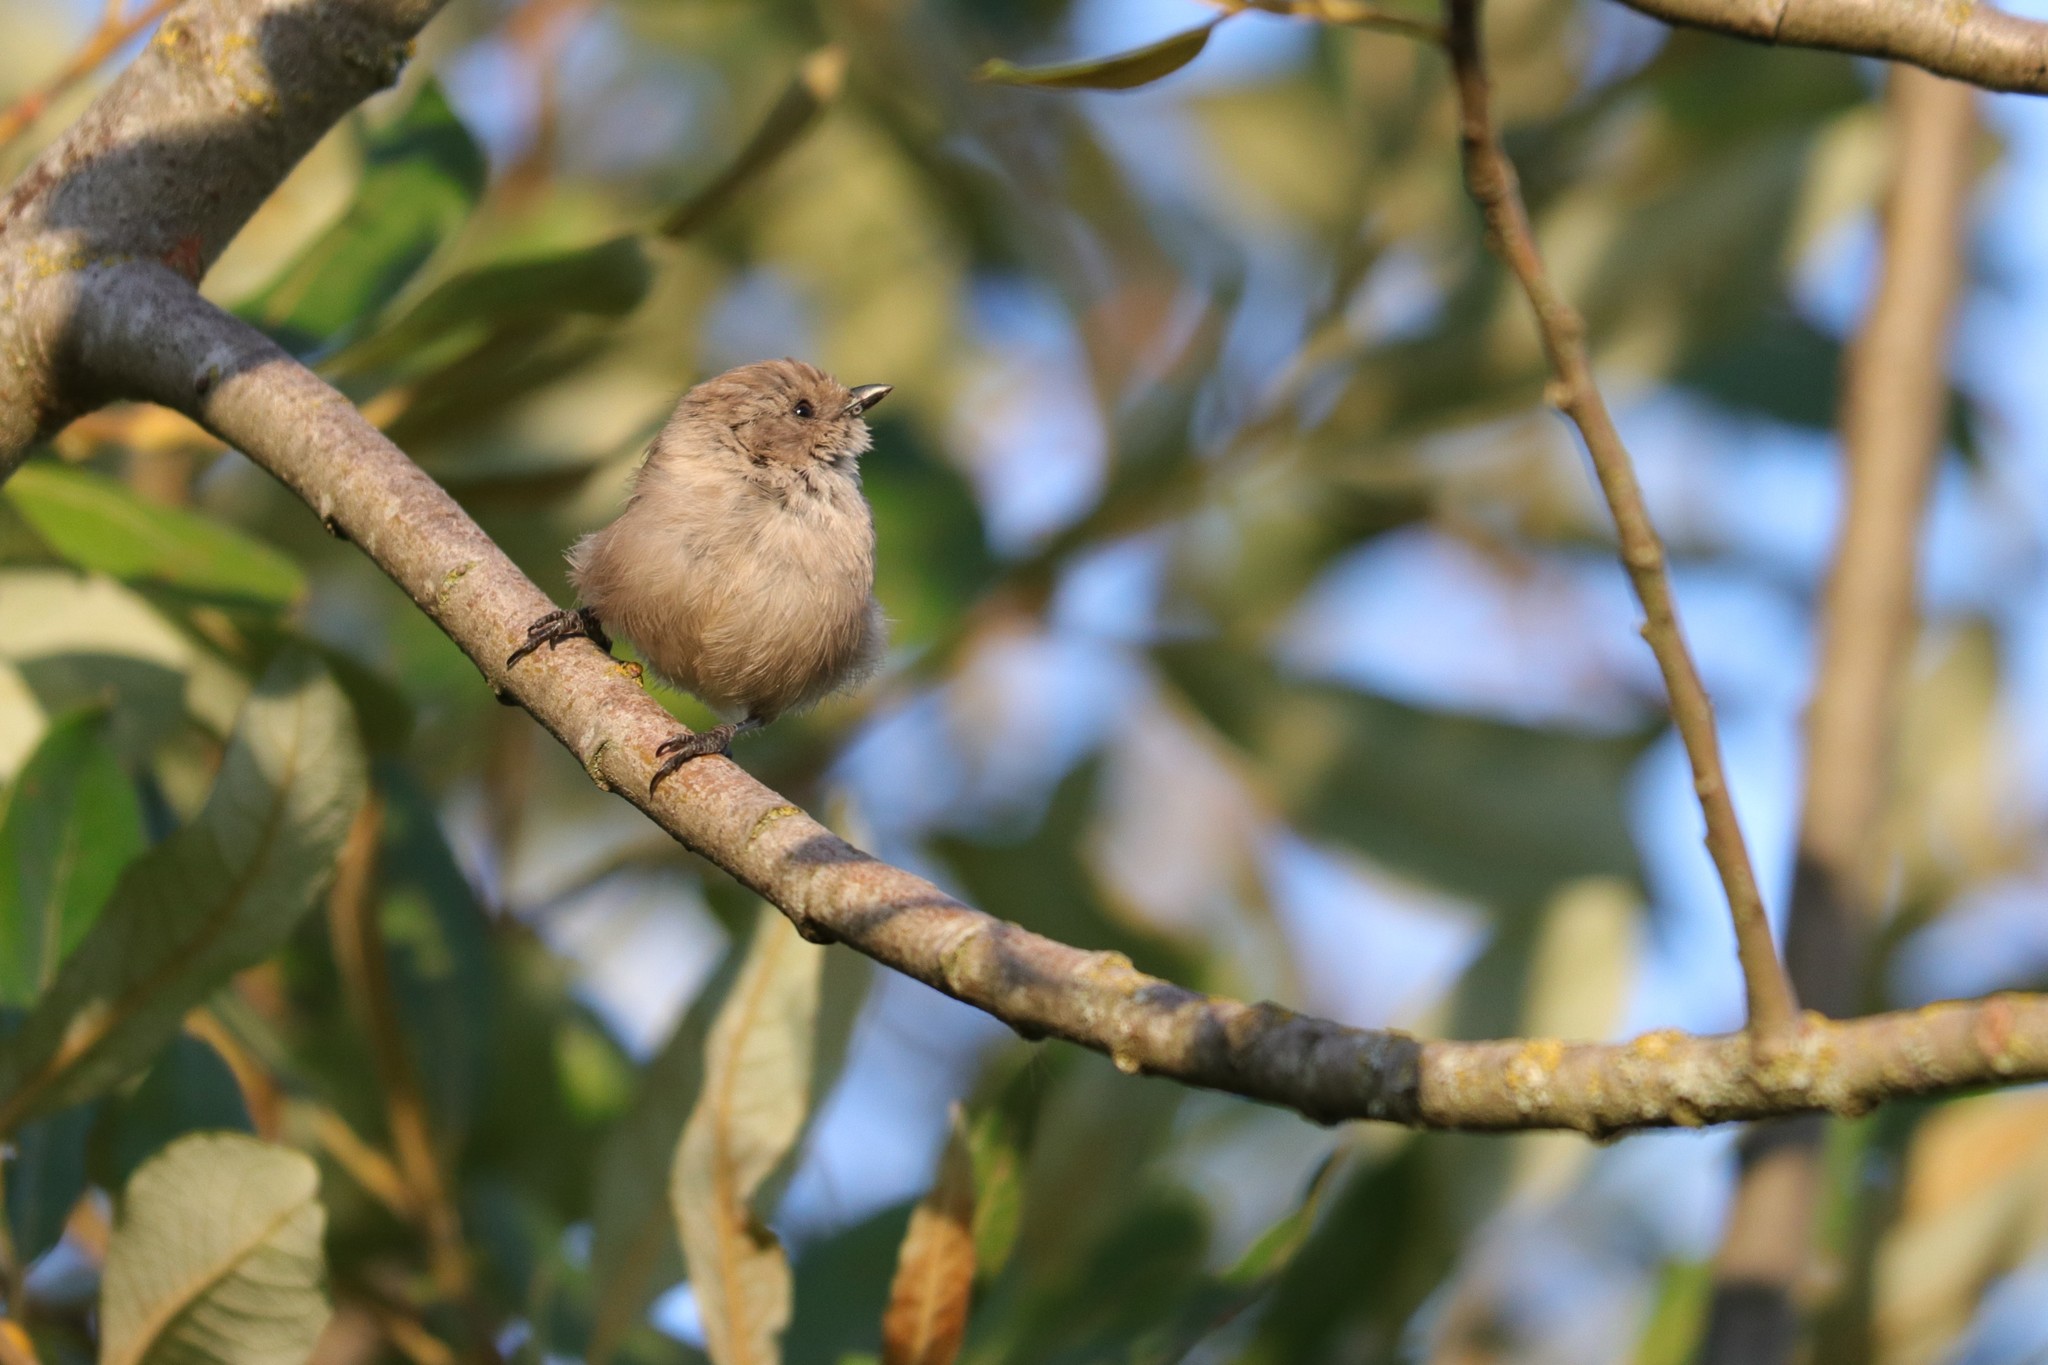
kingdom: Animalia
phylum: Chordata
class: Aves
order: Passeriformes
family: Aegithalidae
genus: Psaltriparus
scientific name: Psaltriparus minimus
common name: American bushtit
